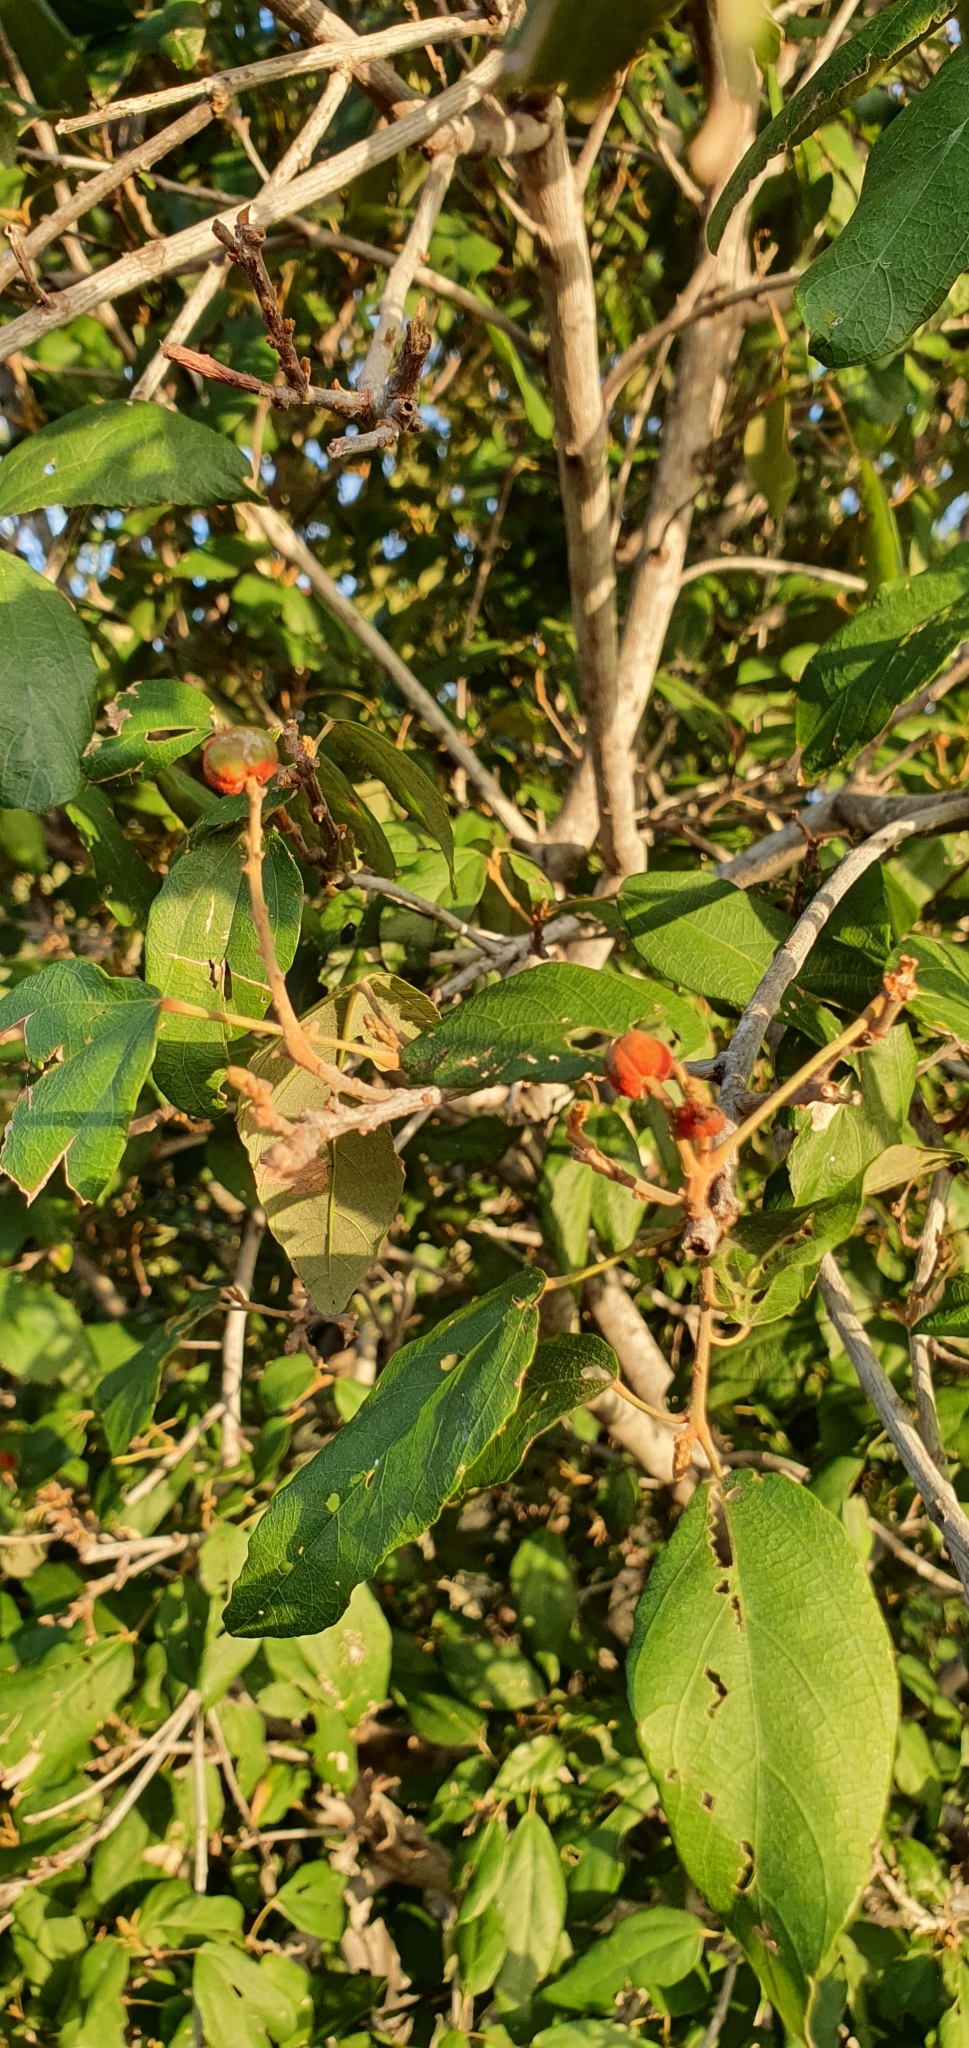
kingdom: Plantae
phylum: Tracheophyta
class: Magnoliopsida
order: Malpighiales
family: Euphorbiaceae
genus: Mallotus
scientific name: Mallotus philippensis
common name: Kamala tree
